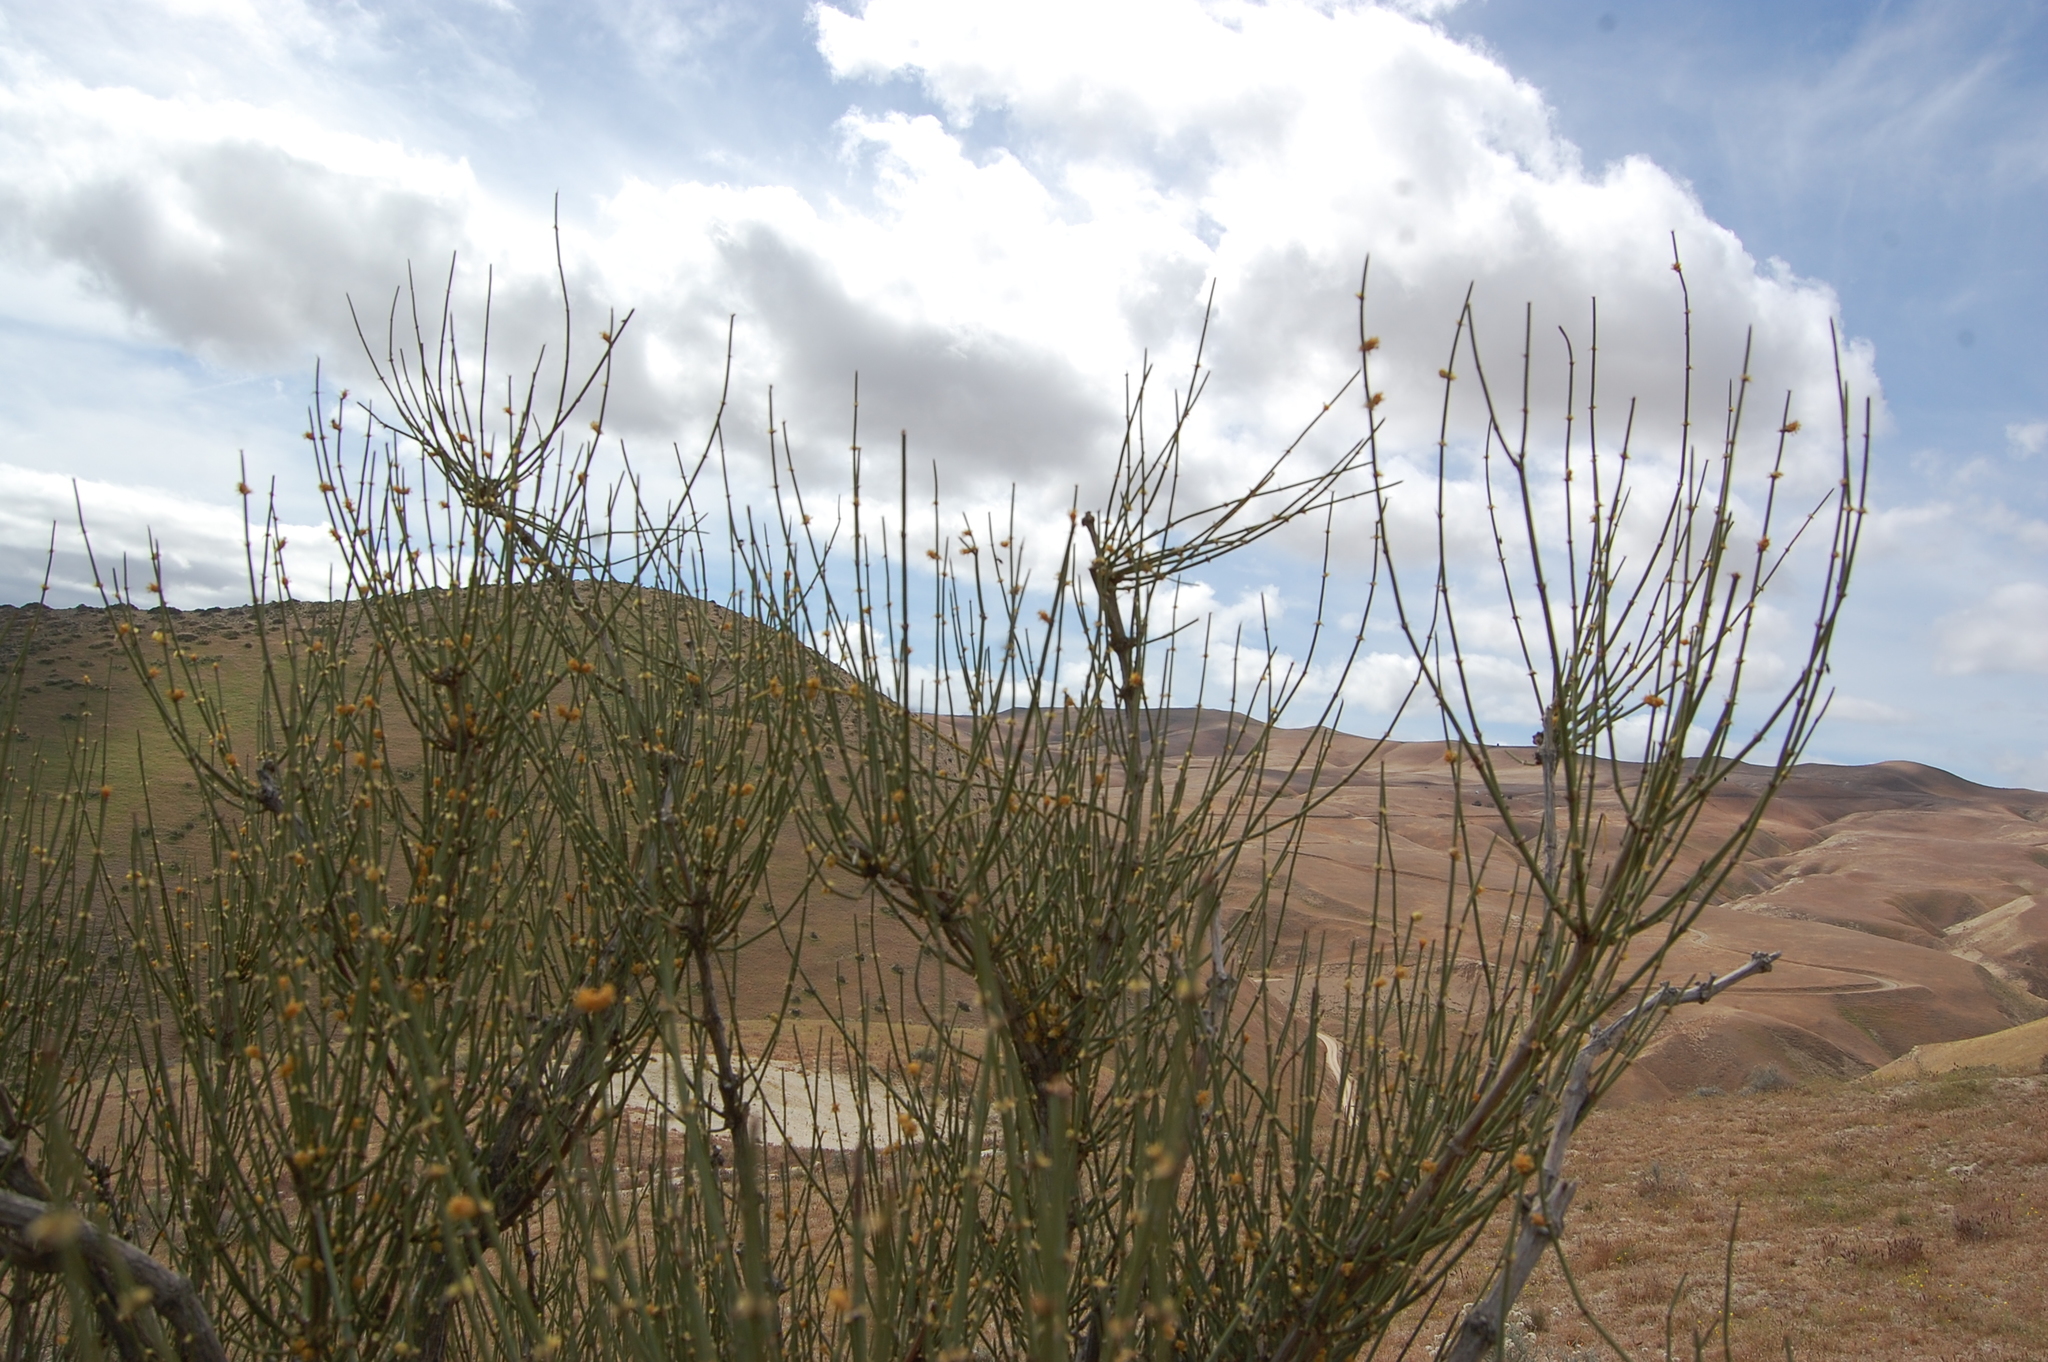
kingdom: Plantae
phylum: Tracheophyta
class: Gnetopsida
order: Ephedrales
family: Ephedraceae
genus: Ephedra
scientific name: Ephedra californica
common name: California ephedra
